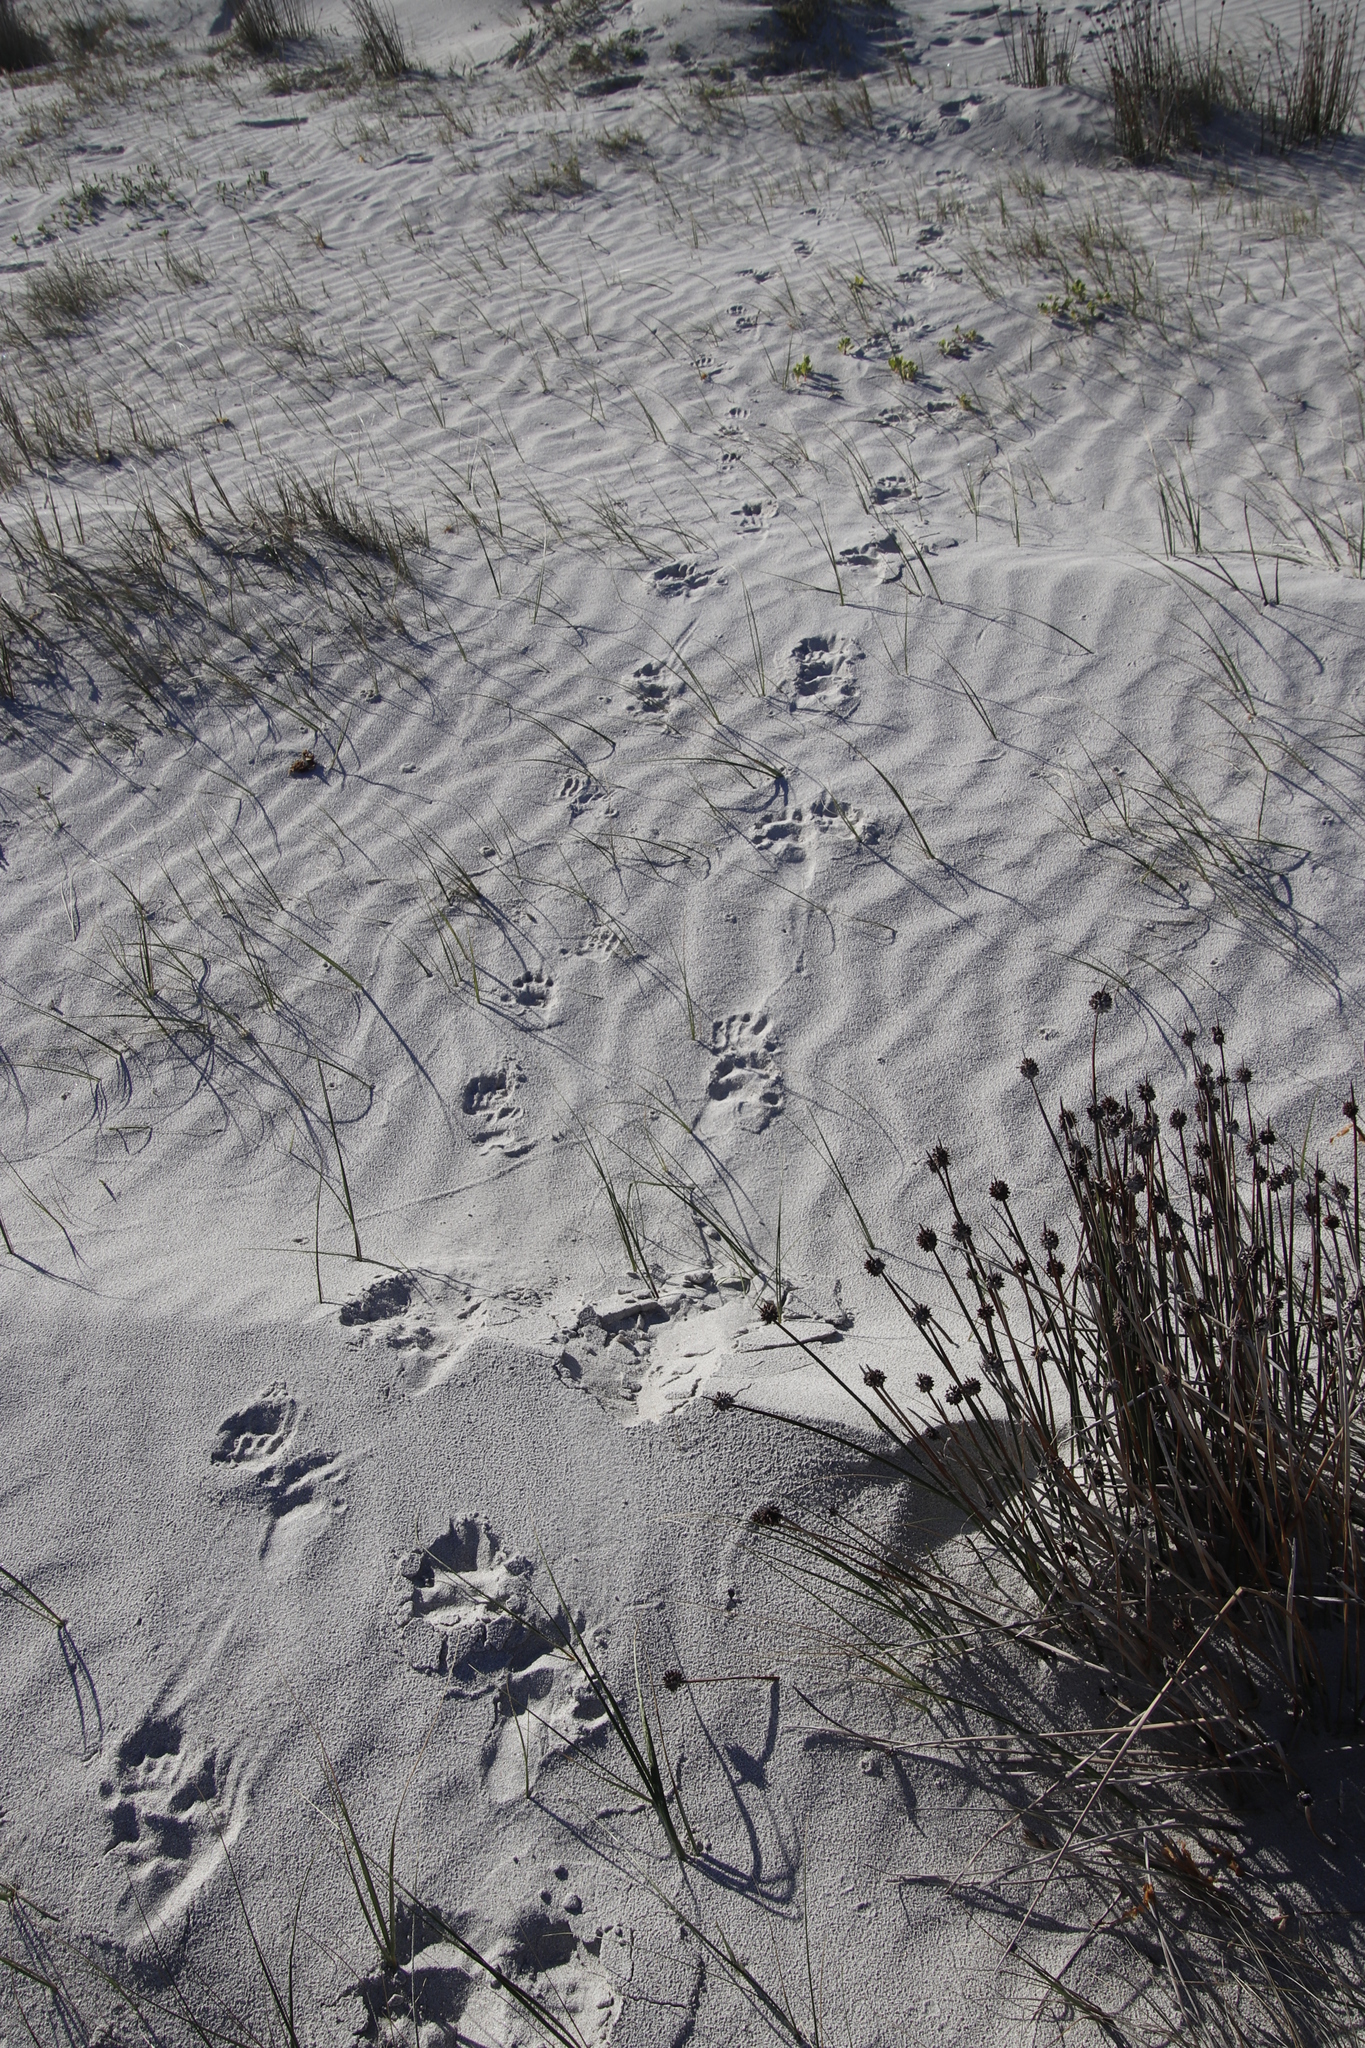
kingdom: Animalia
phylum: Chordata
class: Mammalia
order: Primates
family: Cercopithecidae
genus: Papio
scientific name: Papio ursinus
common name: Chacma baboon
